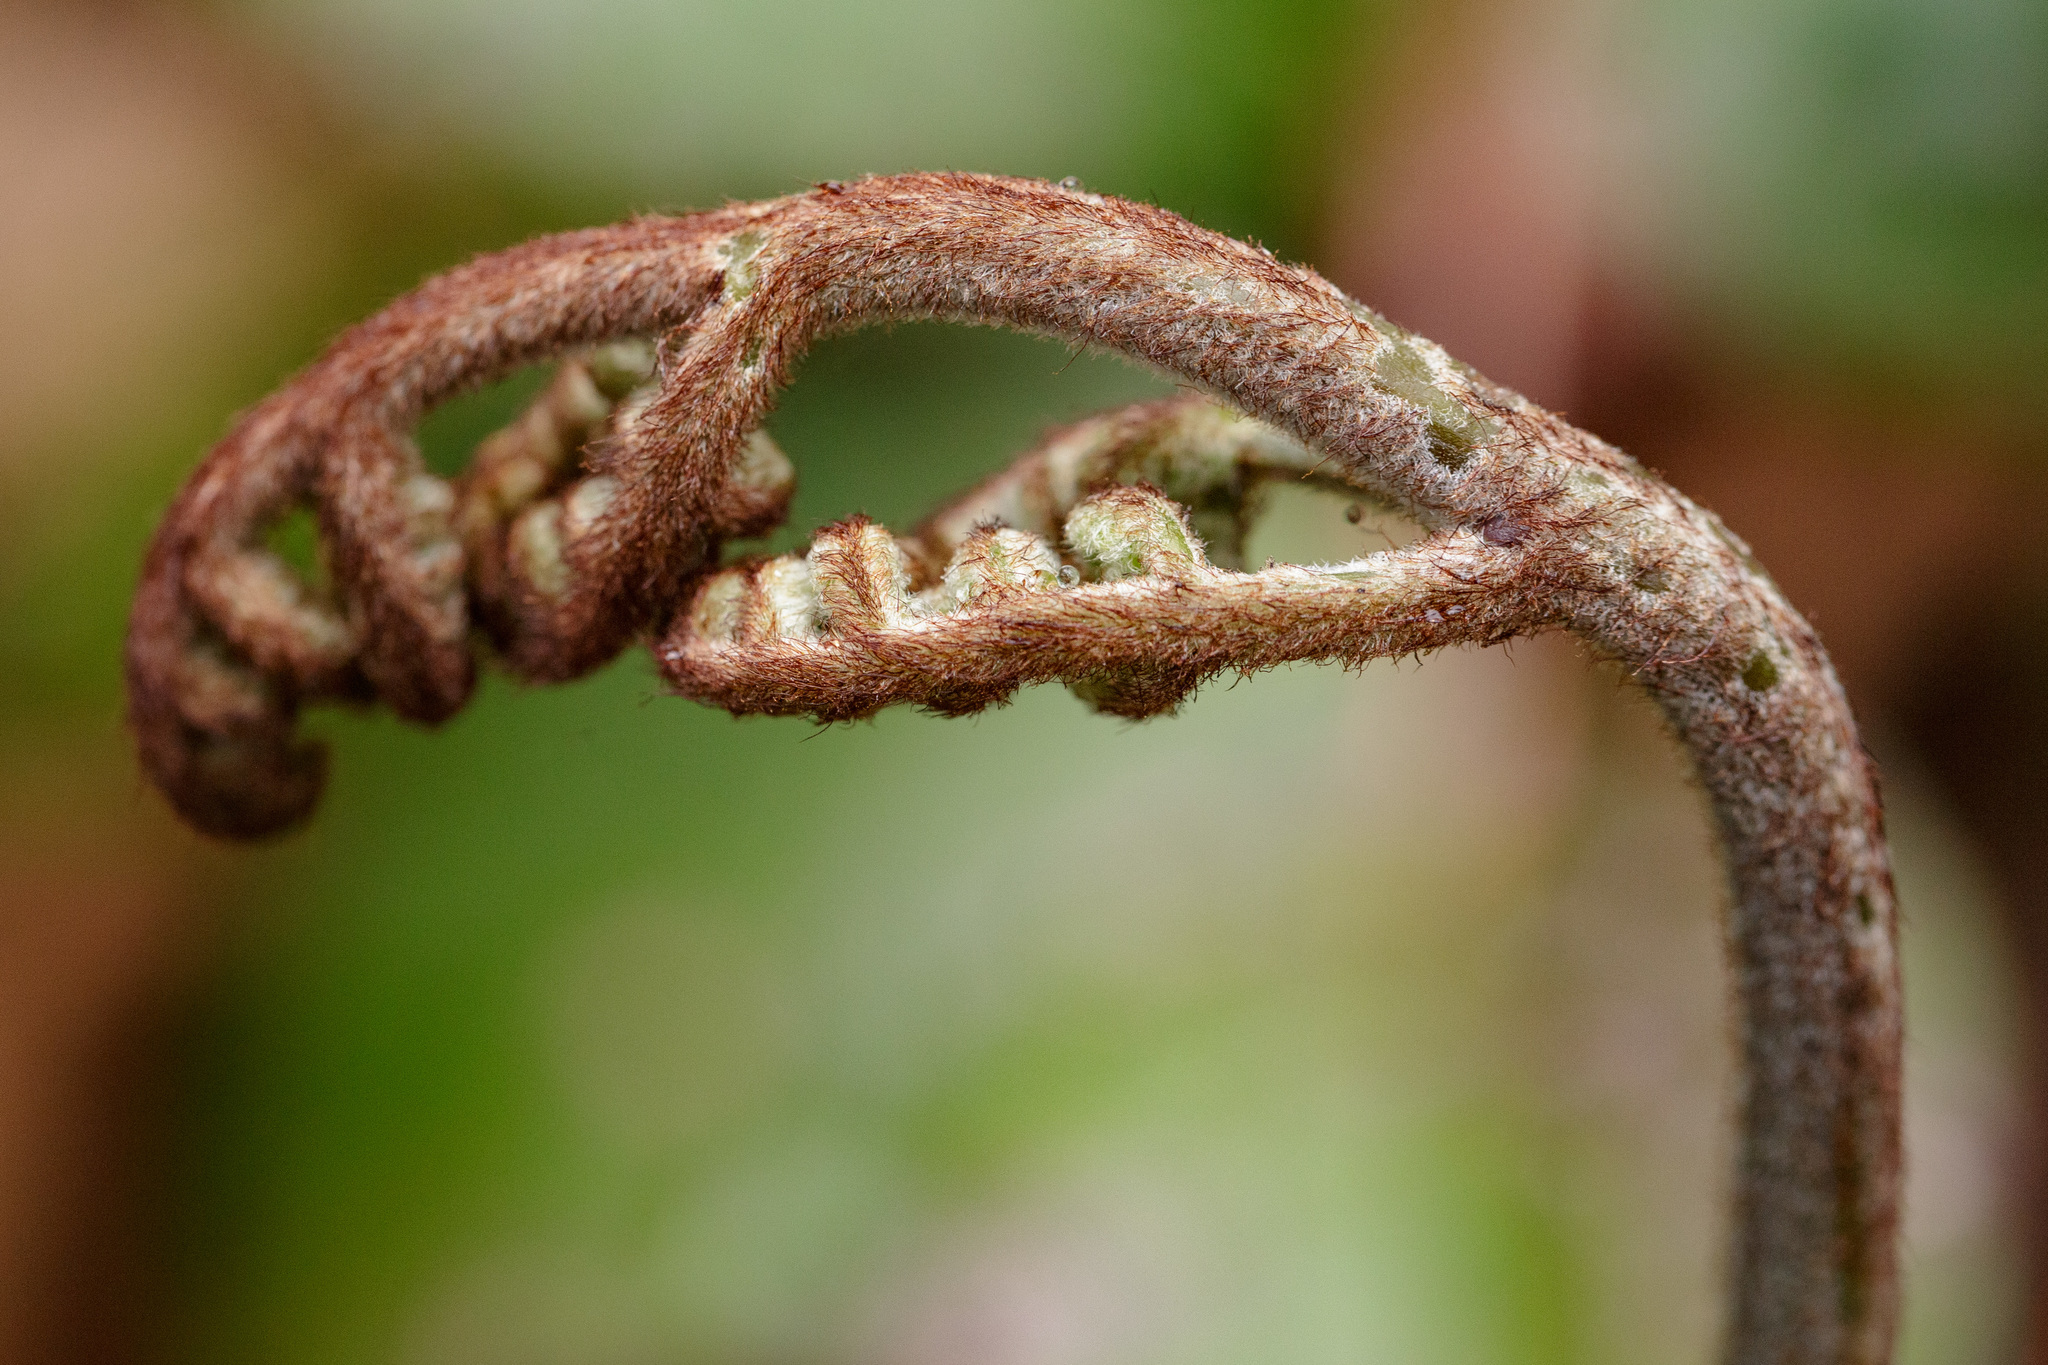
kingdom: Plantae
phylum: Tracheophyta
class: Polypodiopsida
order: Polypodiales
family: Dennstaedtiaceae
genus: Pteridium
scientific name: Pteridium aquilinum
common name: Bracken
